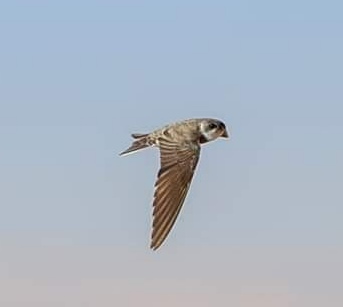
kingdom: Animalia
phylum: Chordata
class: Aves
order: Passeriformes
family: Hirundinidae
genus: Riparia
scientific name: Riparia riparia
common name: Sand martin
